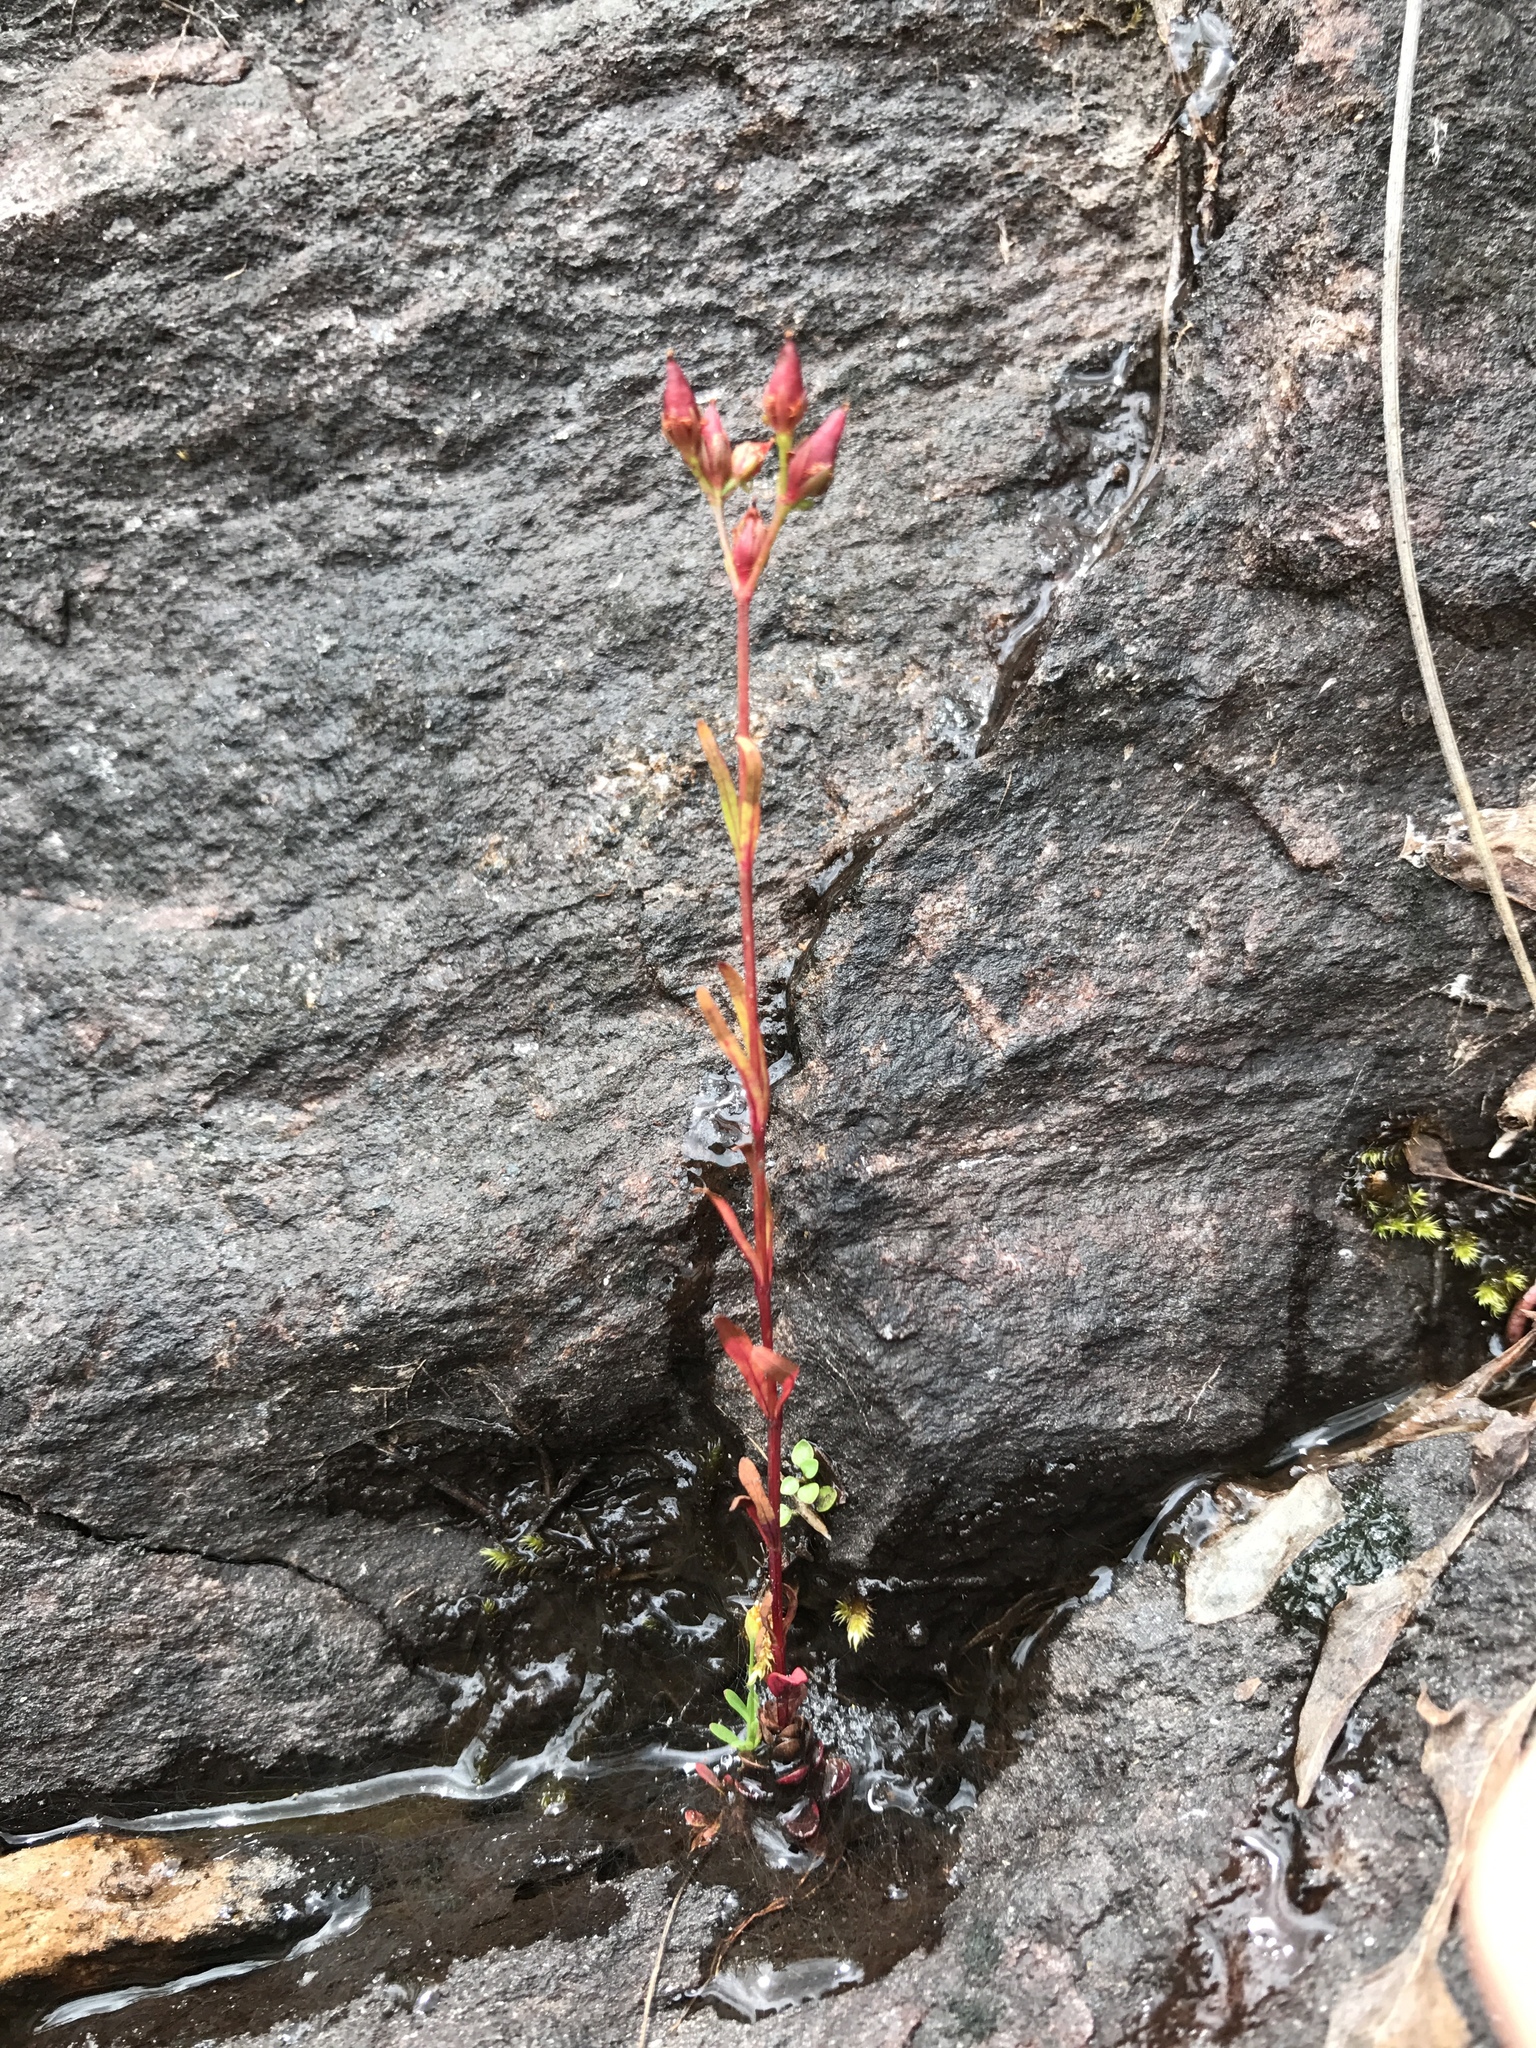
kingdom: Plantae
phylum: Tracheophyta
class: Magnoliopsida
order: Malpighiales
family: Hypericaceae
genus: Hypericum
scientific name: Hypericum canadense
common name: Irish st. john's-wort
